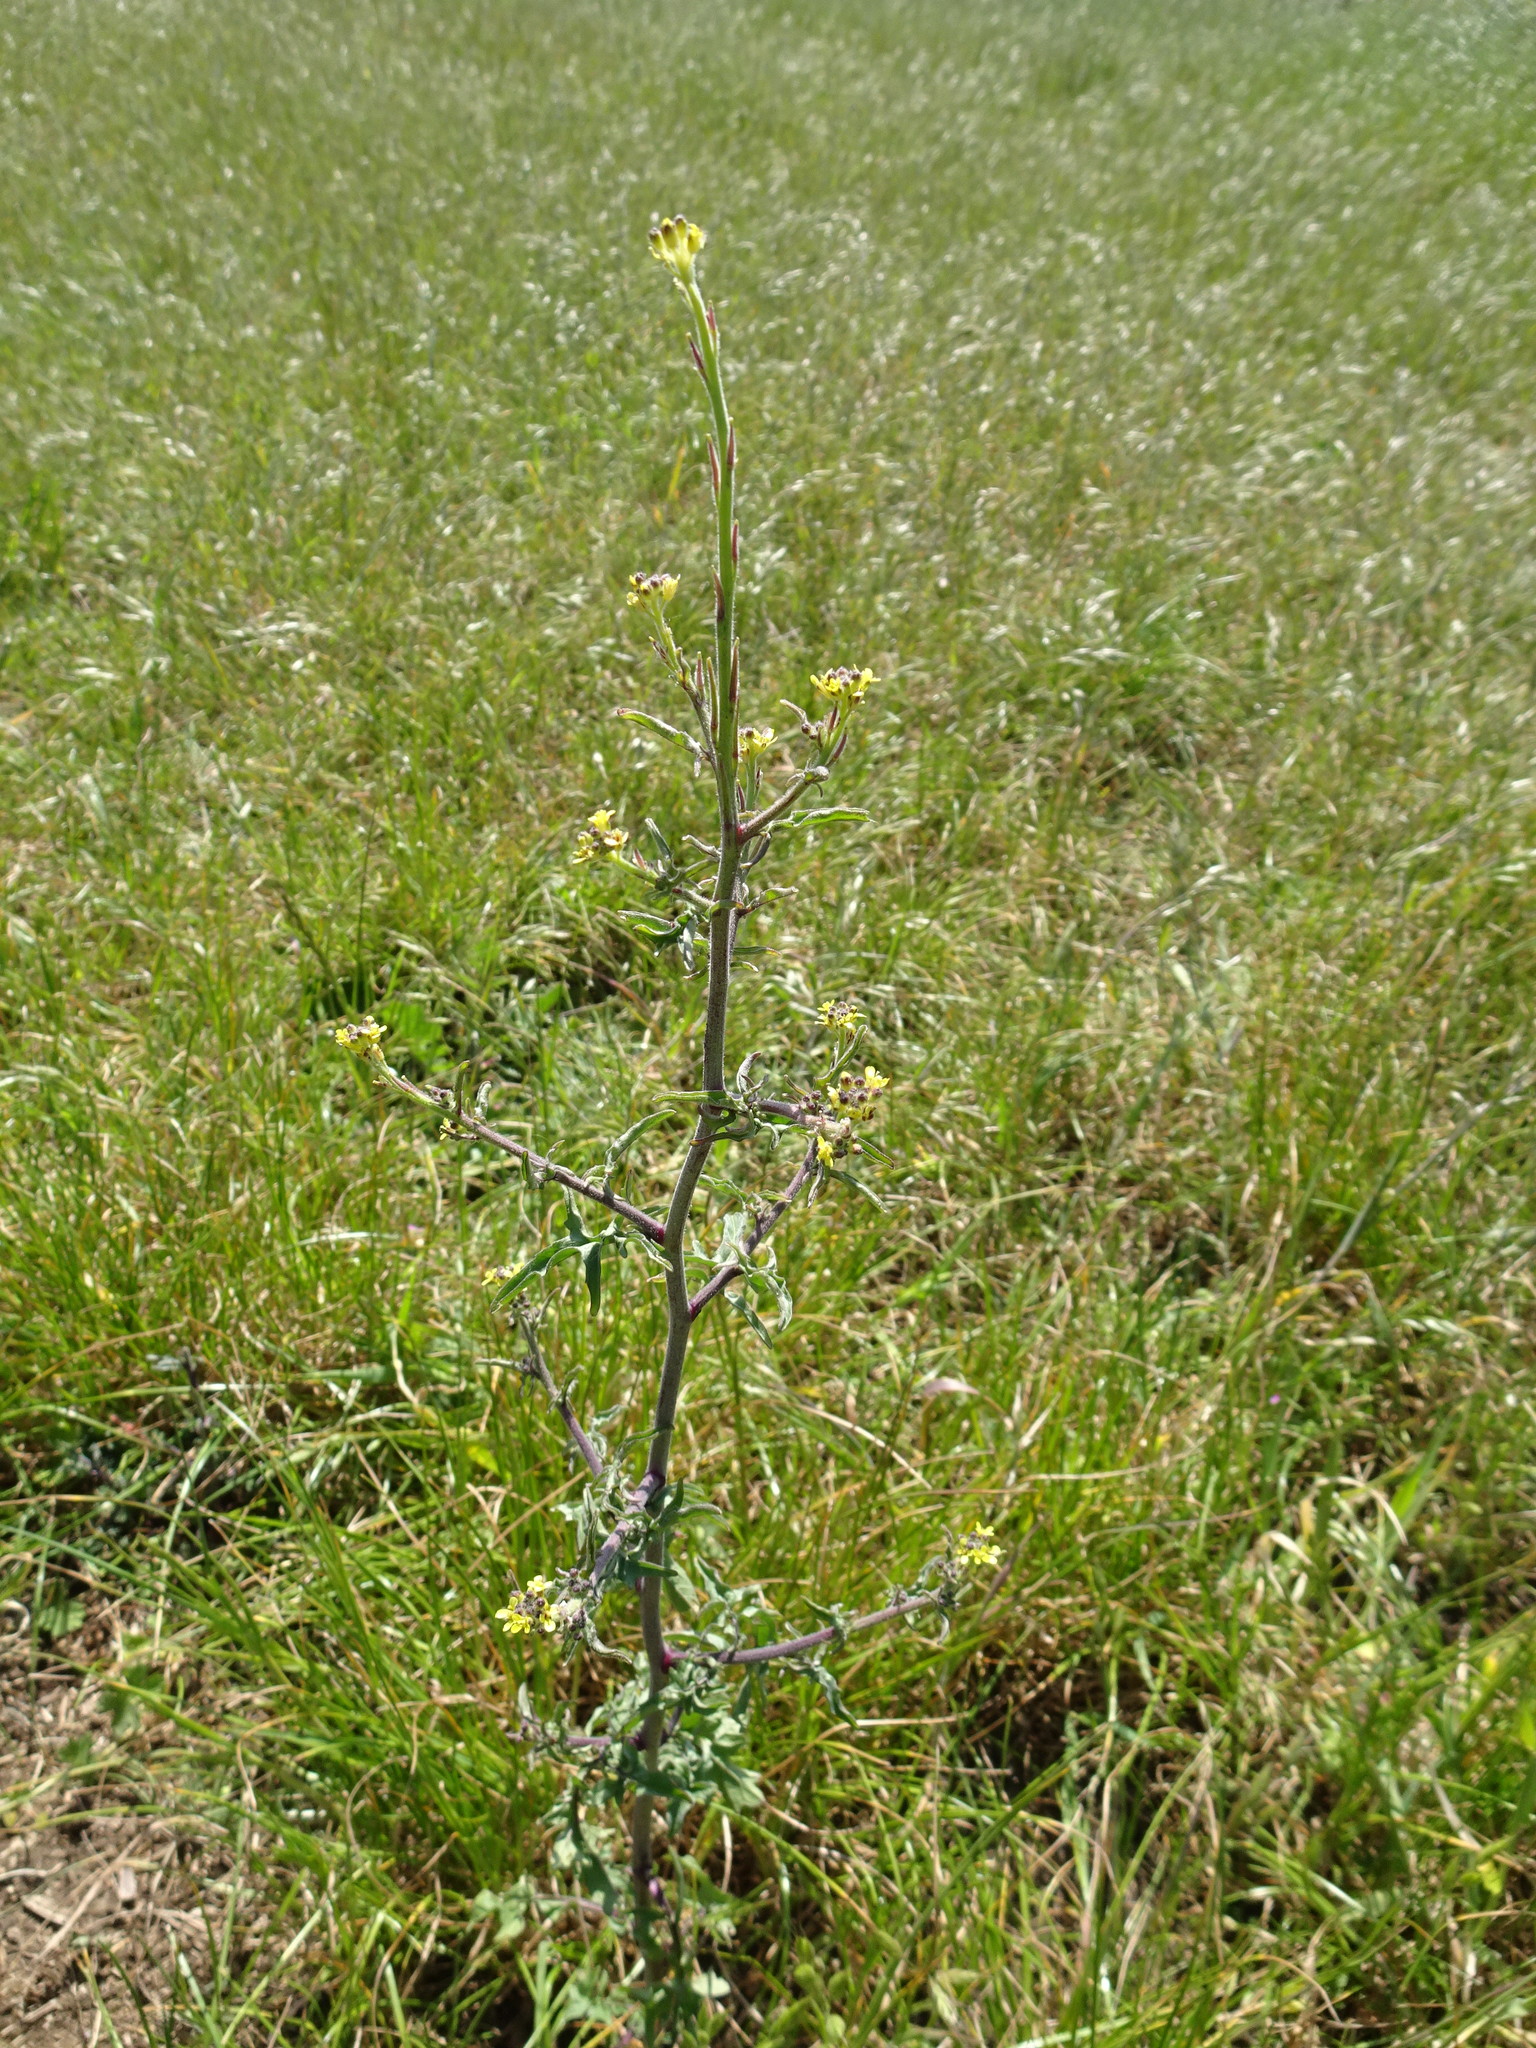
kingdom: Plantae
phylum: Tracheophyta
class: Magnoliopsida
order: Brassicales
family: Brassicaceae
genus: Sisymbrium
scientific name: Sisymbrium officinale
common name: Hedge mustard
